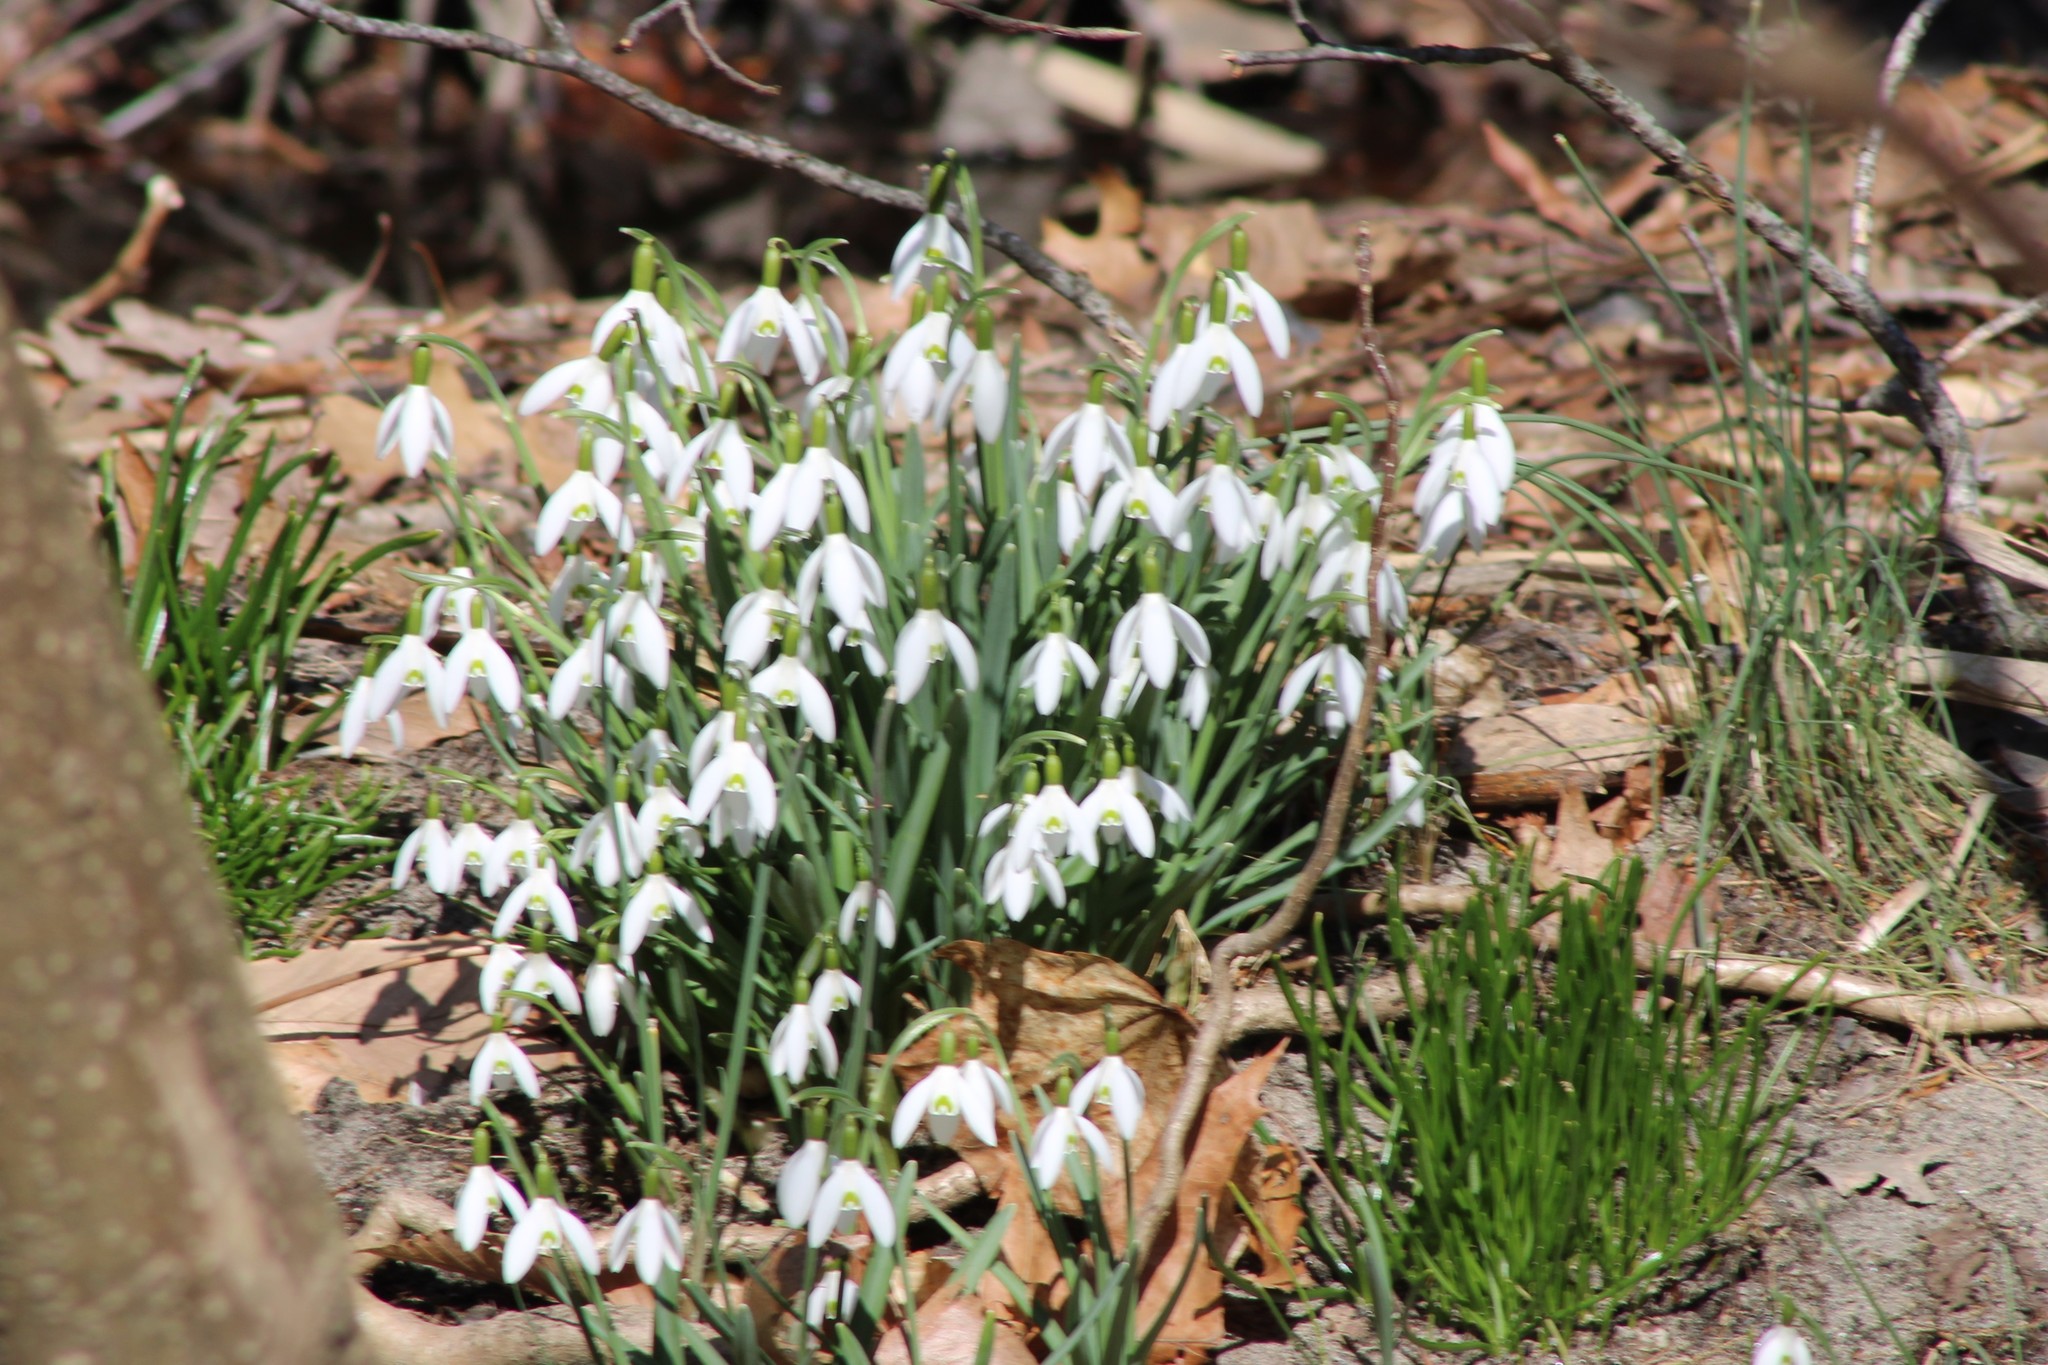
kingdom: Plantae
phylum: Tracheophyta
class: Liliopsida
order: Asparagales
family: Amaryllidaceae
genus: Galanthus
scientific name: Galanthus nivalis
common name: Snowdrop
